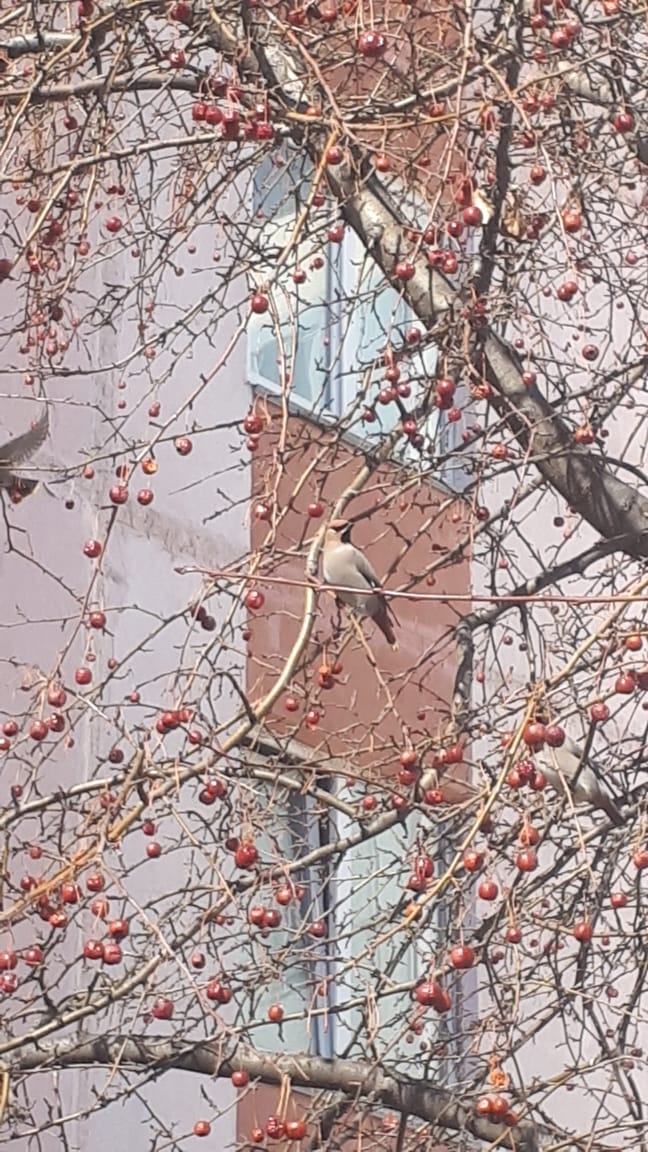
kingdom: Animalia
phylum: Chordata
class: Aves
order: Passeriformes
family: Bombycillidae
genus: Bombycilla
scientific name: Bombycilla garrulus
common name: Bohemian waxwing
